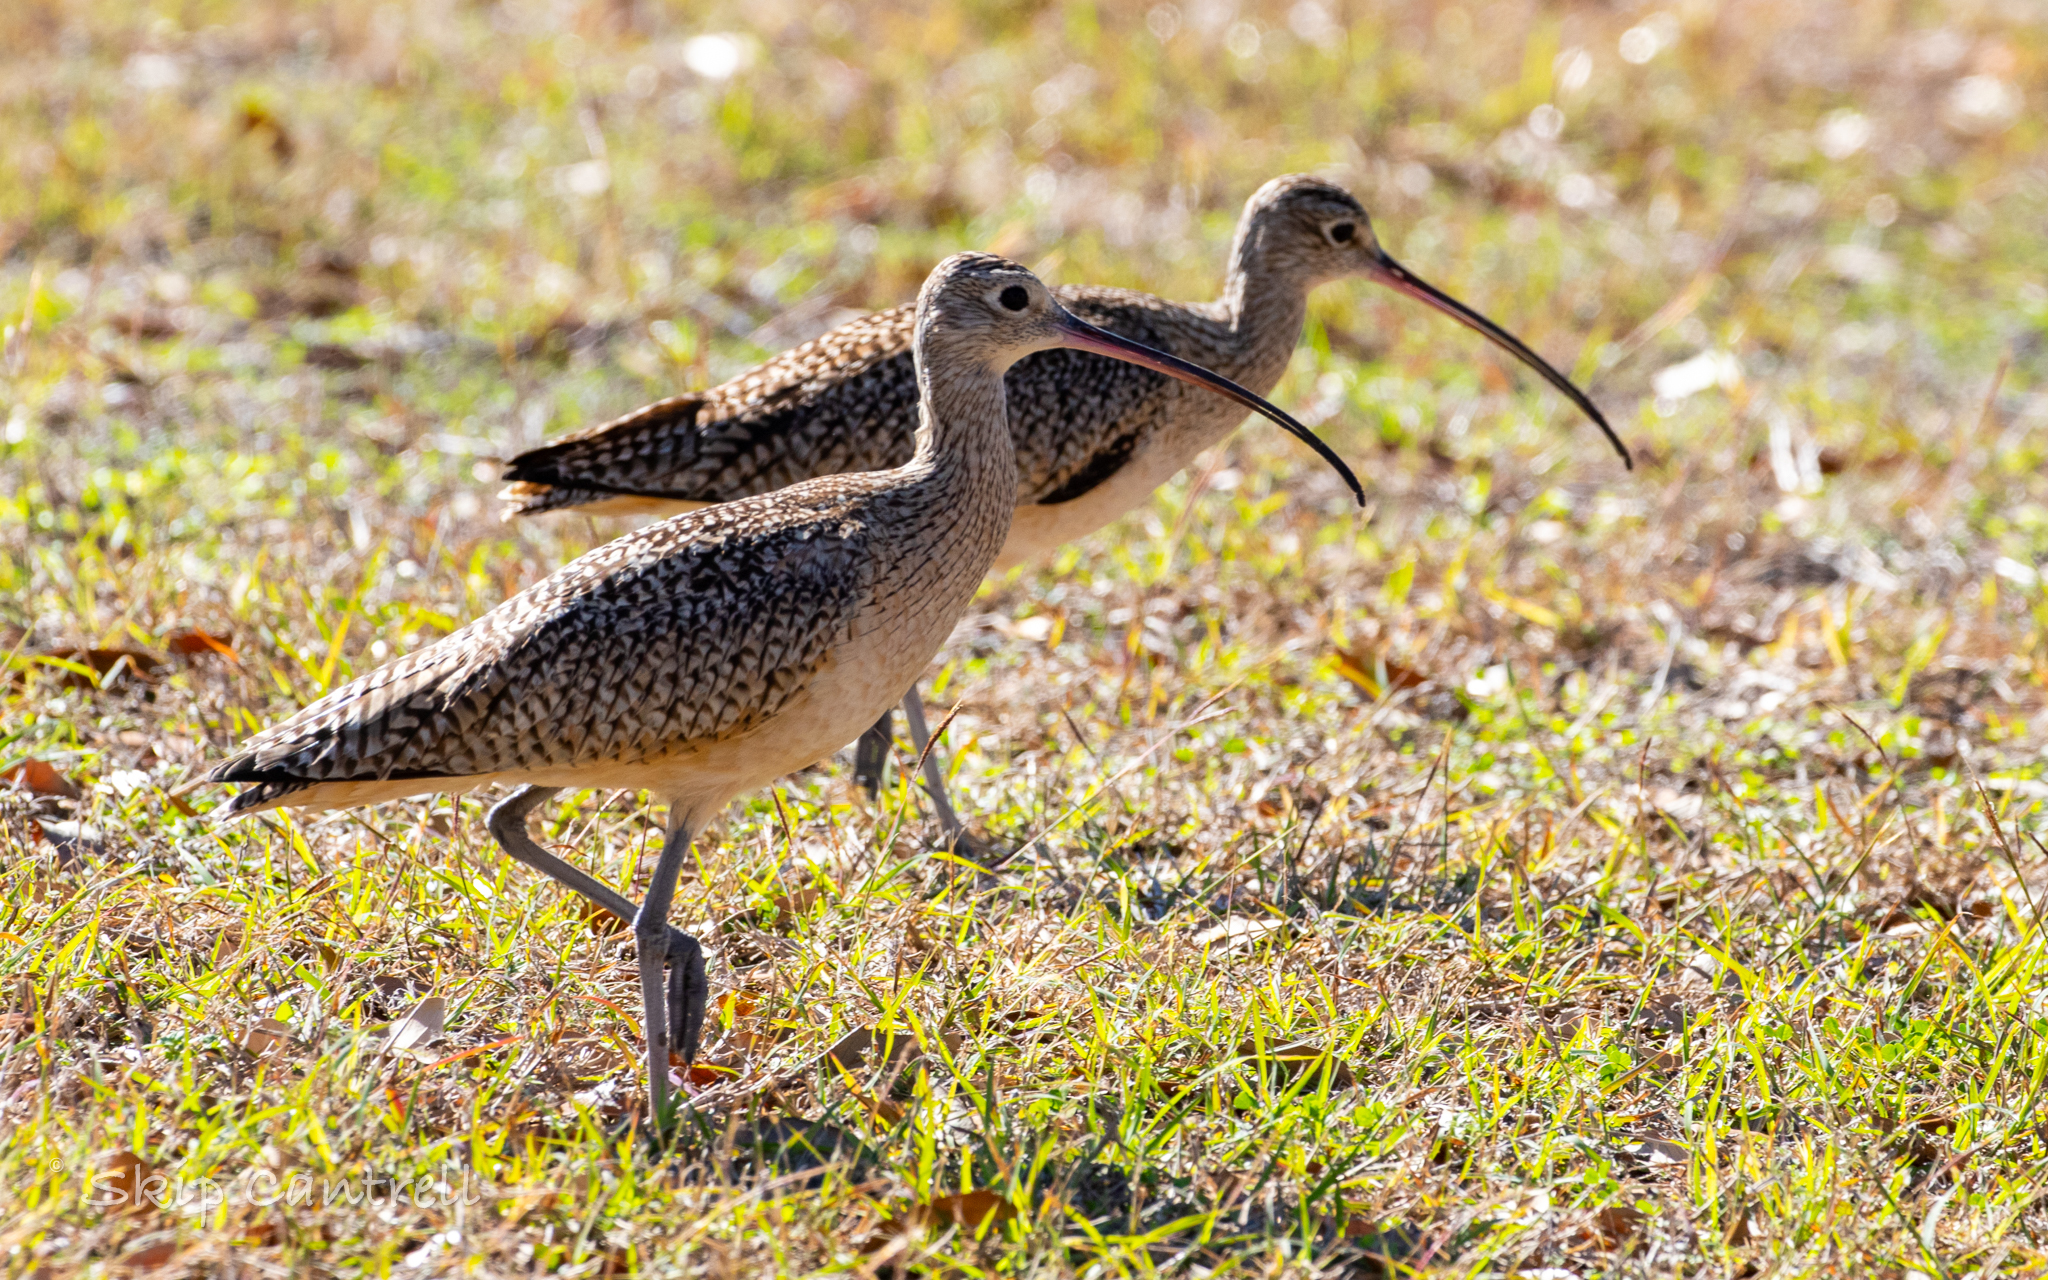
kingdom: Animalia
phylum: Chordata
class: Aves
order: Charadriiformes
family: Scolopacidae
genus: Numenius
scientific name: Numenius americanus
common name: Long-billed curlew
